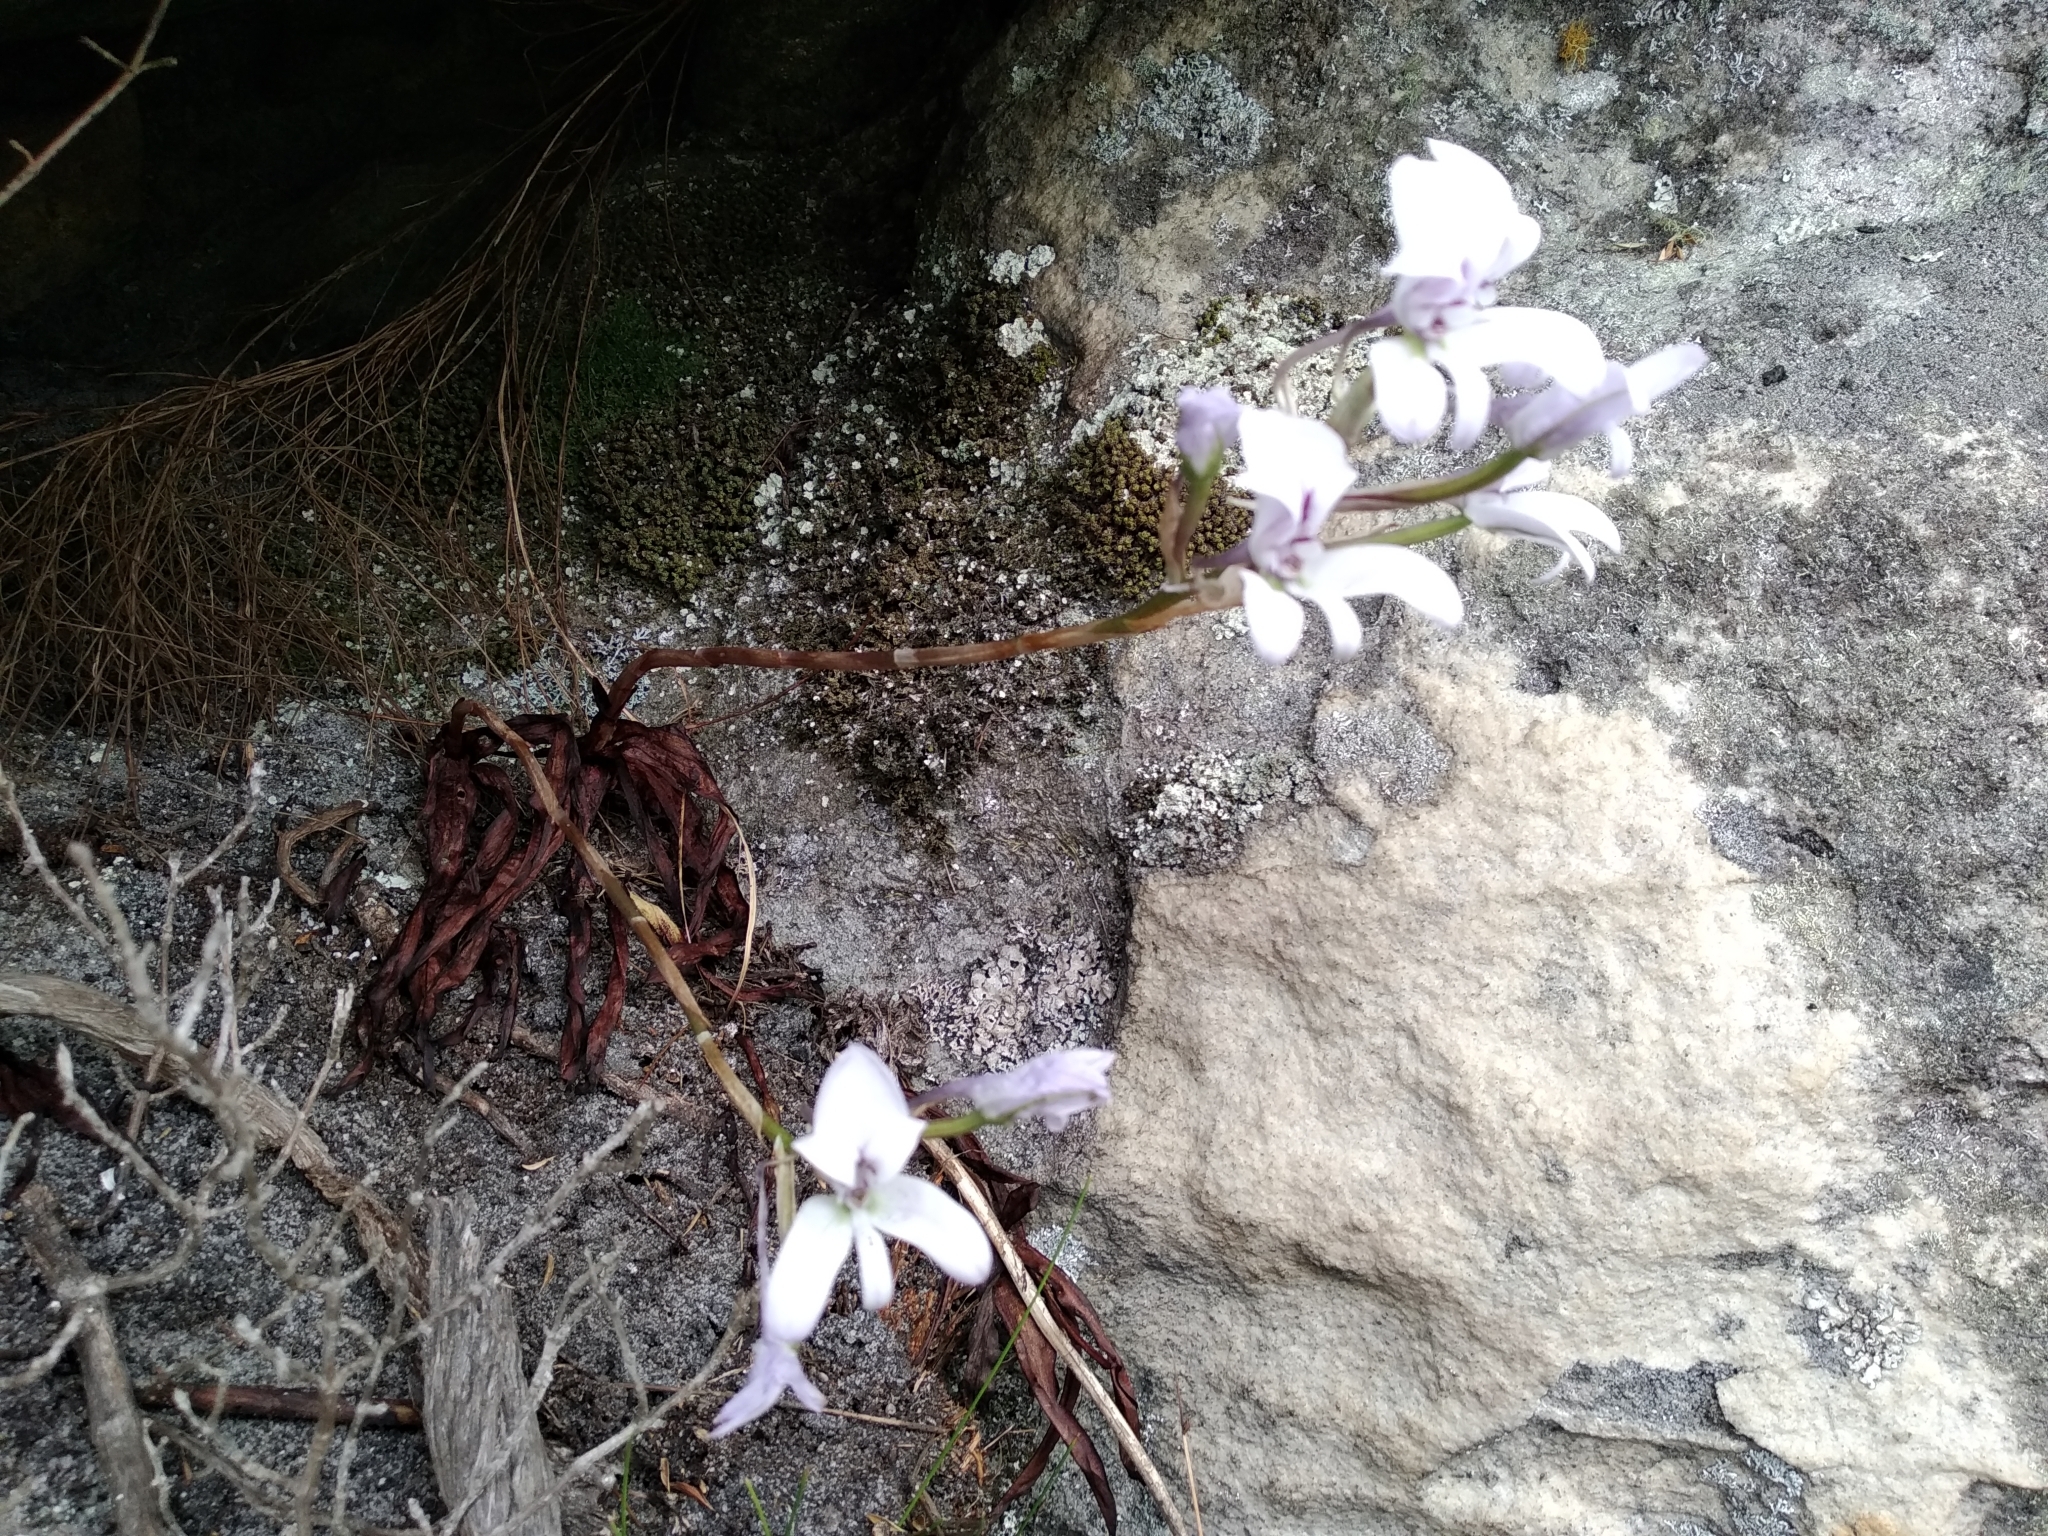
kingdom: Plantae
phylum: Tracheophyta
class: Liliopsida
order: Asparagales
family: Orchidaceae
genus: Disa
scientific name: Disa harveyana
